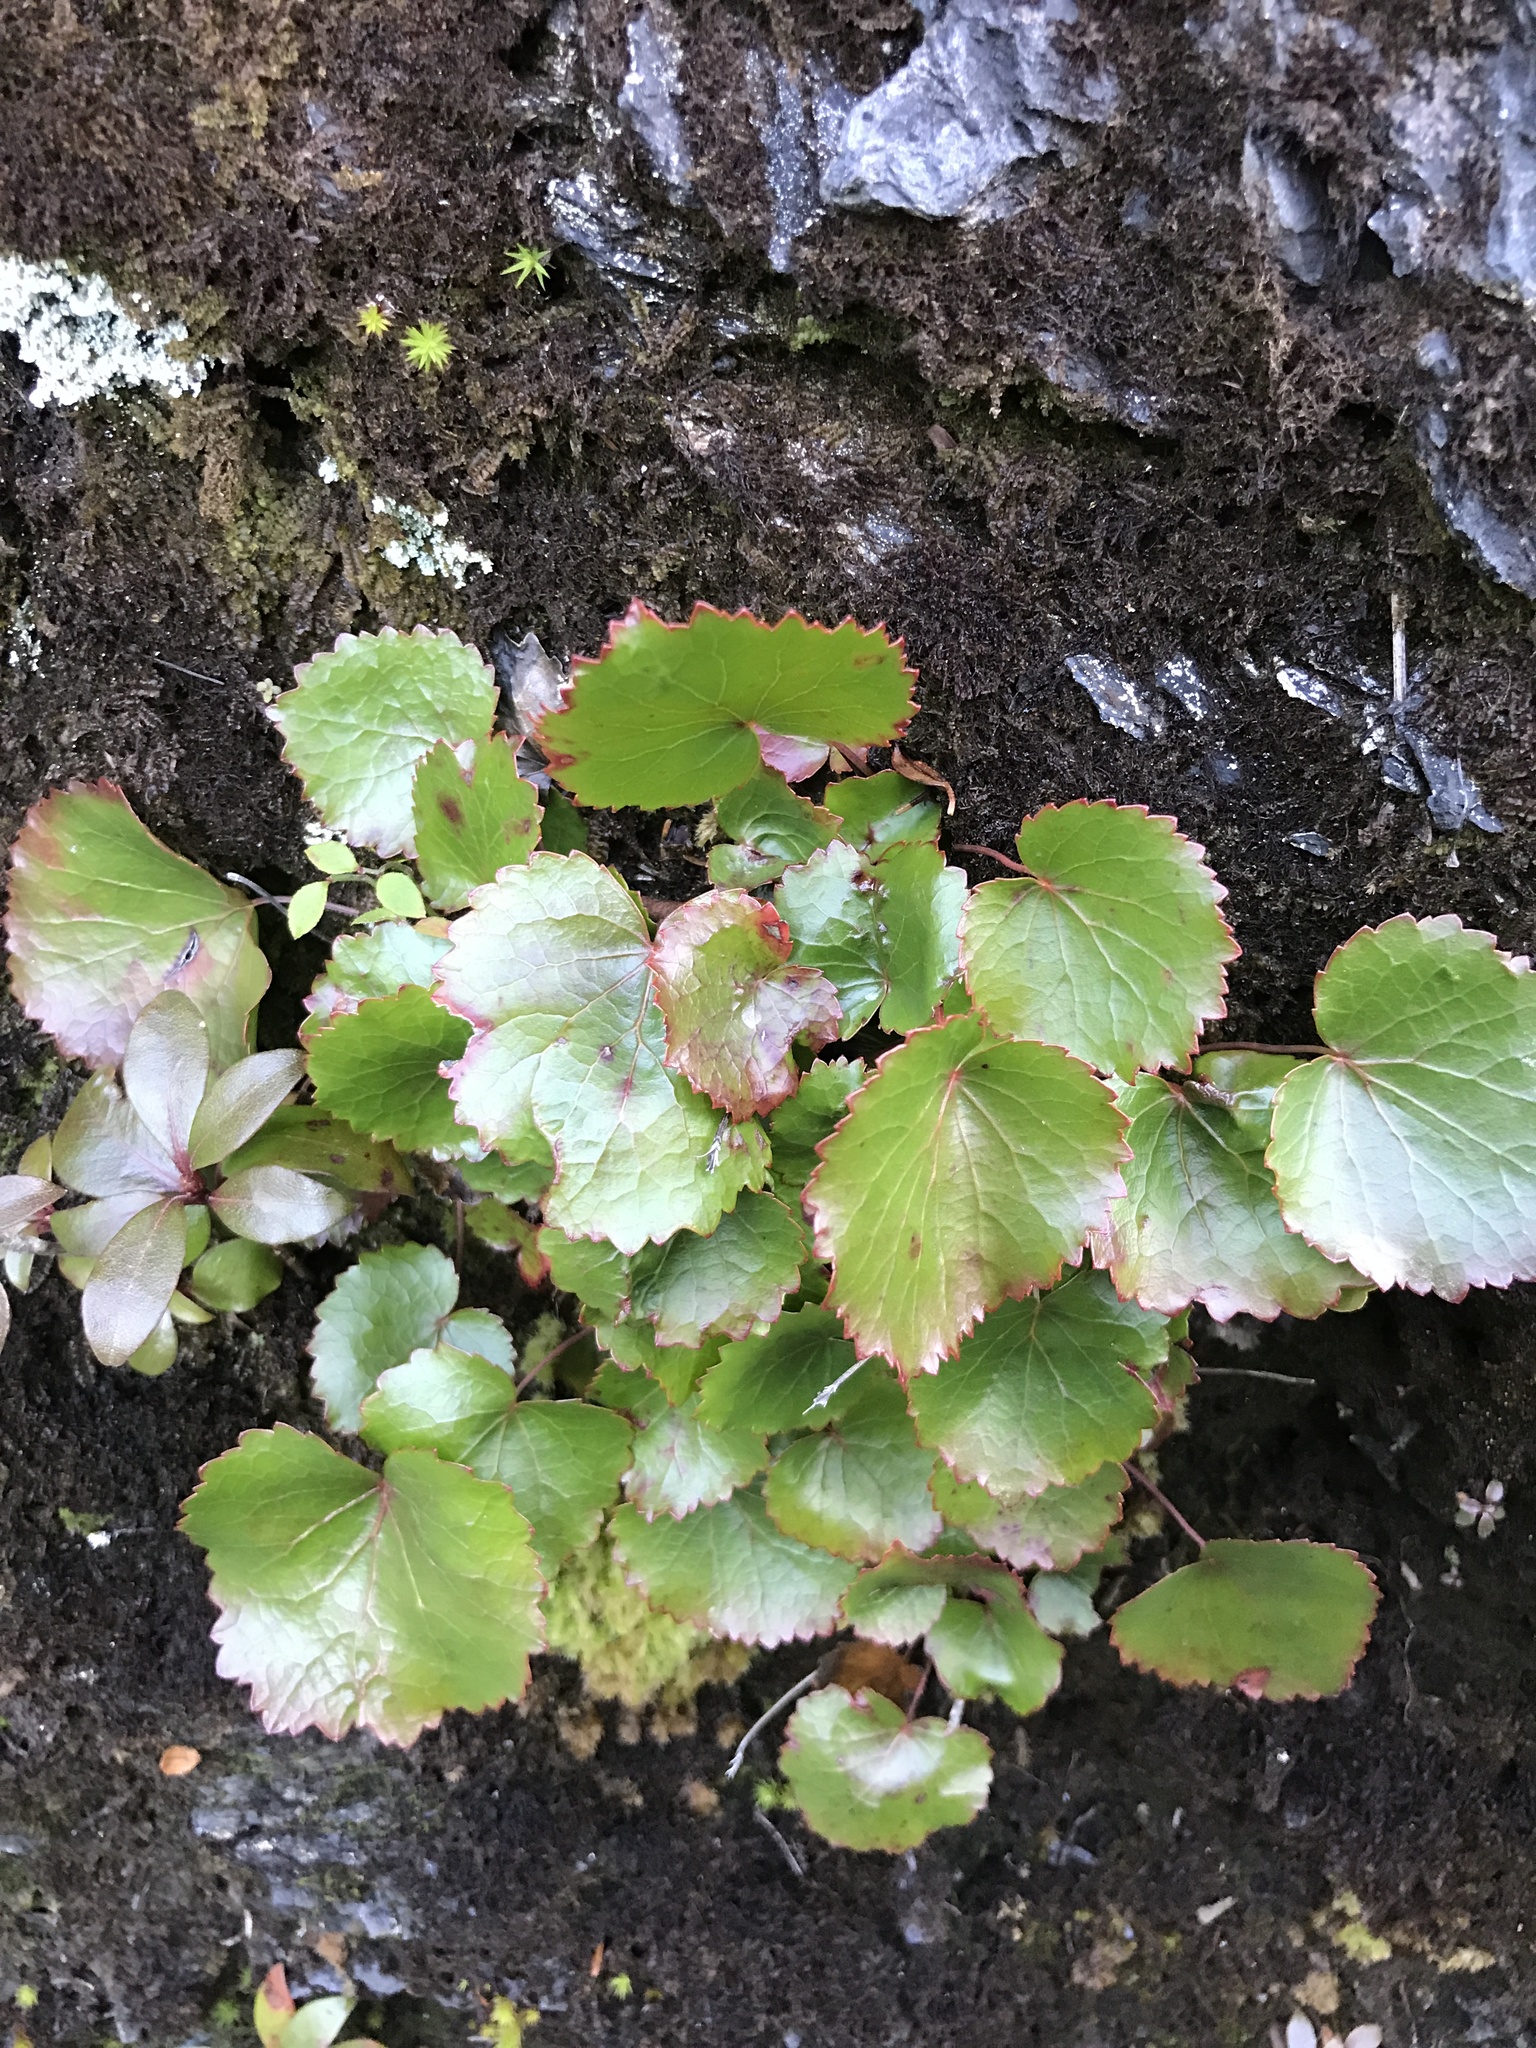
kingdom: Plantae
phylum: Tracheophyta
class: Magnoliopsida
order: Ericales
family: Diapensiaceae
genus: Galax
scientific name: Galax urceolata
